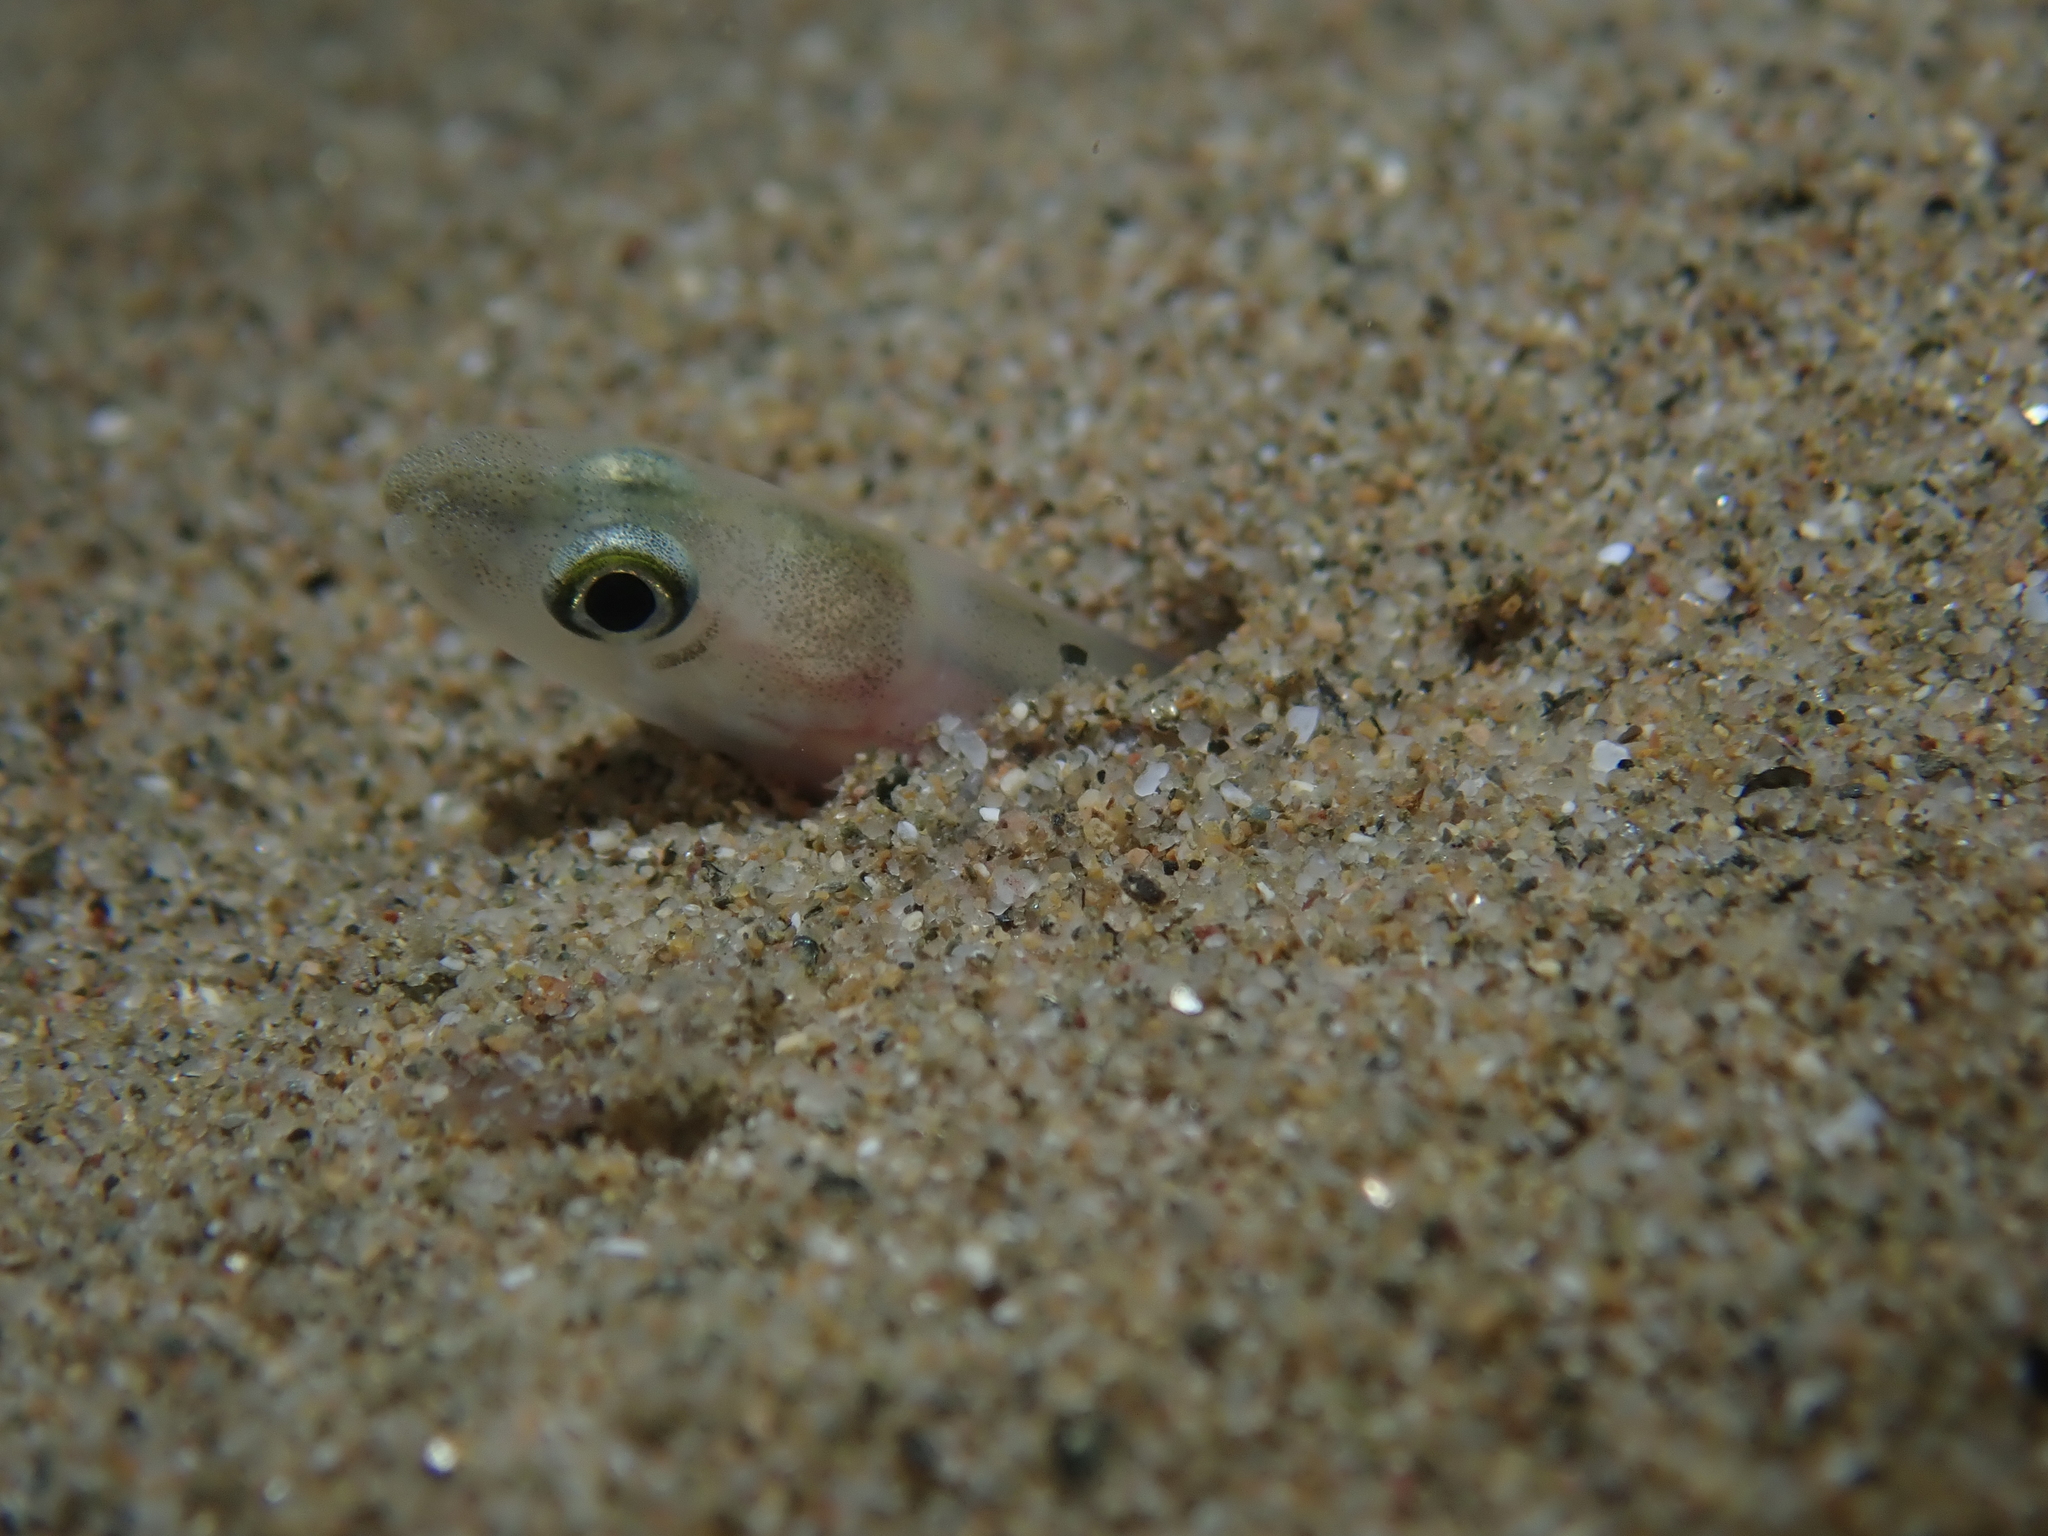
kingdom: Animalia
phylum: Chordata
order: Anguilliformes
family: Congridae
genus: Ariosoma
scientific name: Ariosoma balearicum
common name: Bandtooth conger
